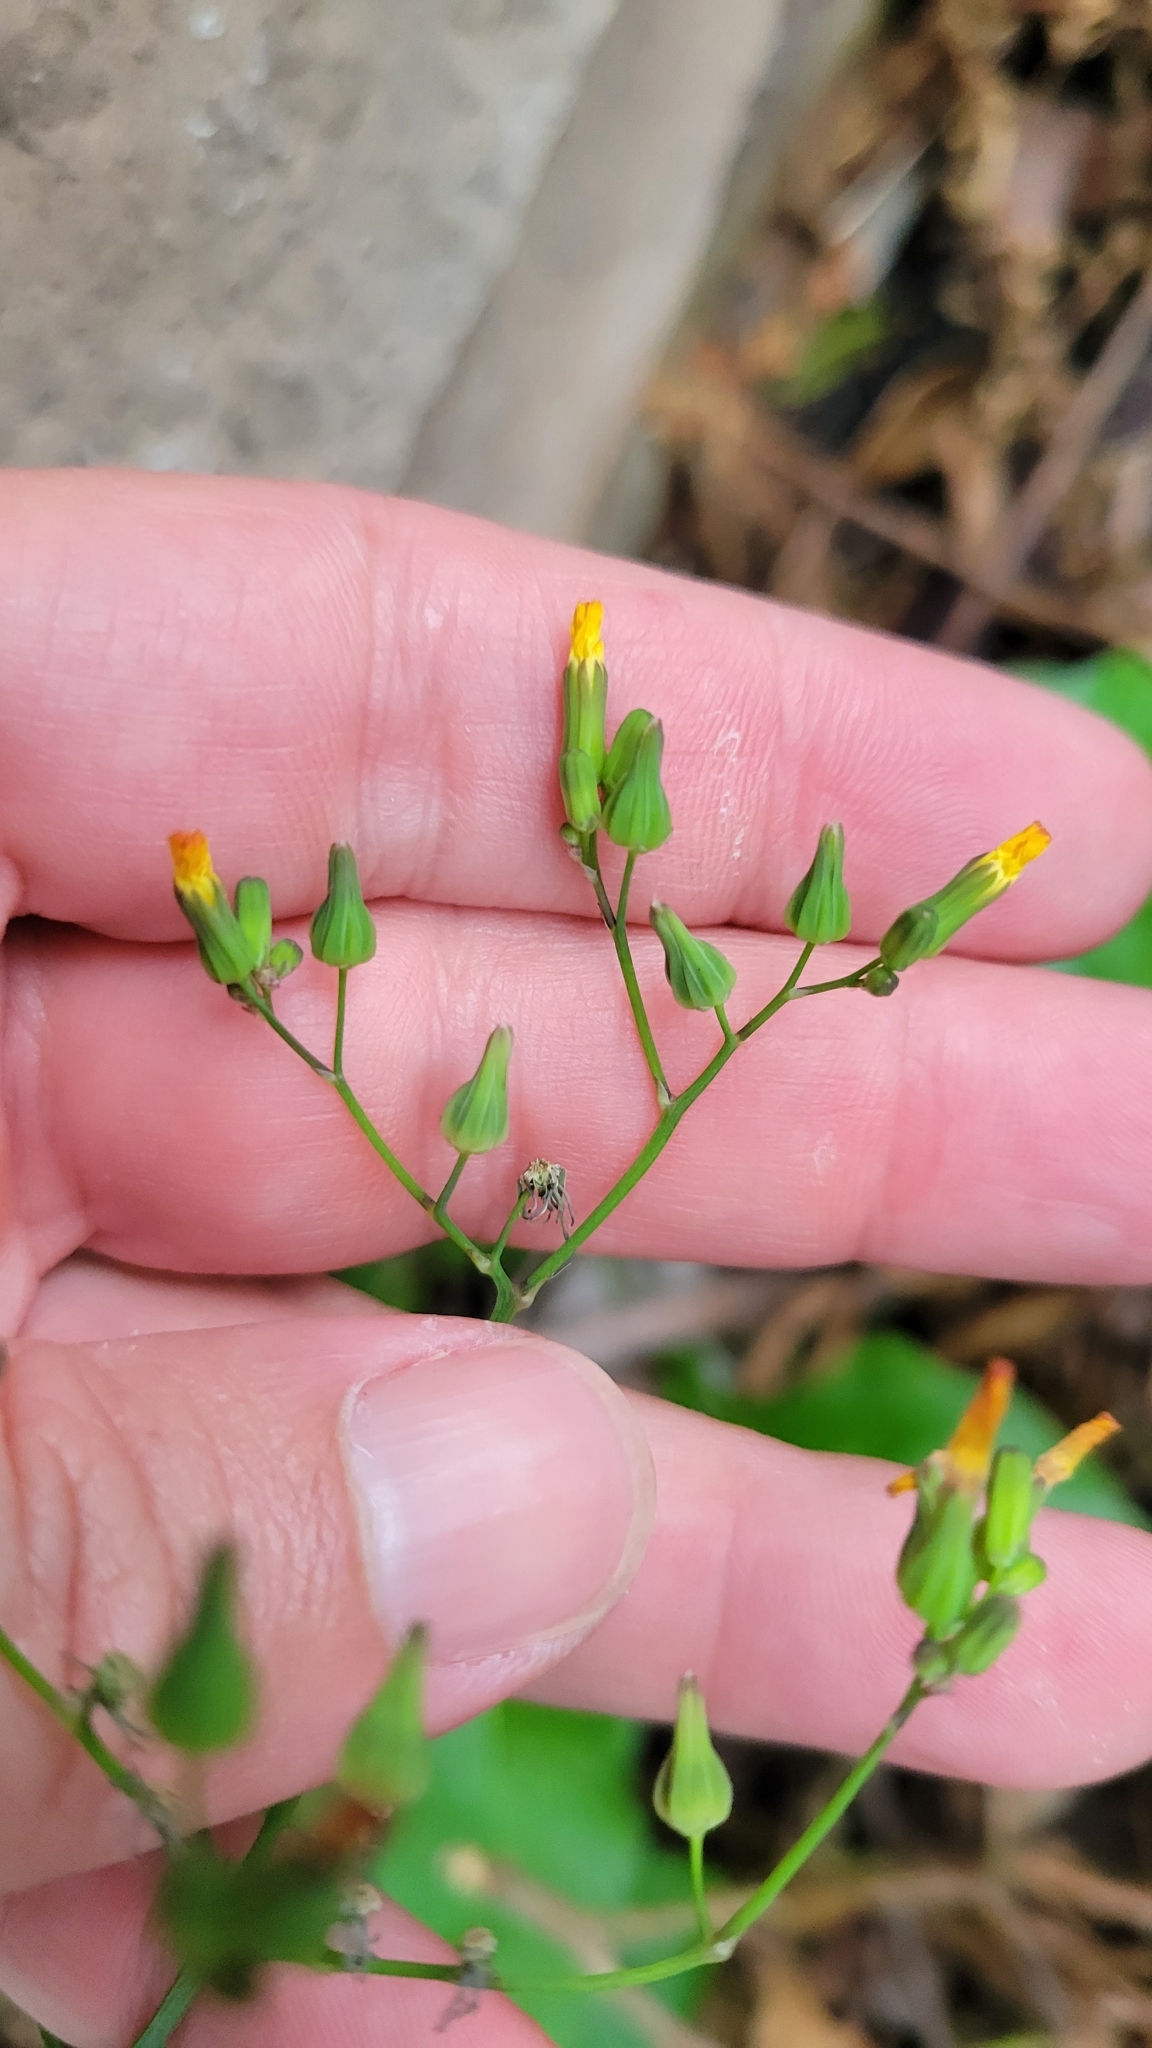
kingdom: Plantae
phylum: Tracheophyta
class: Magnoliopsida
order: Asterales
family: Asteraceae
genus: Youngia
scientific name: Youngia japonica
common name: Oriental false hawksbeard
